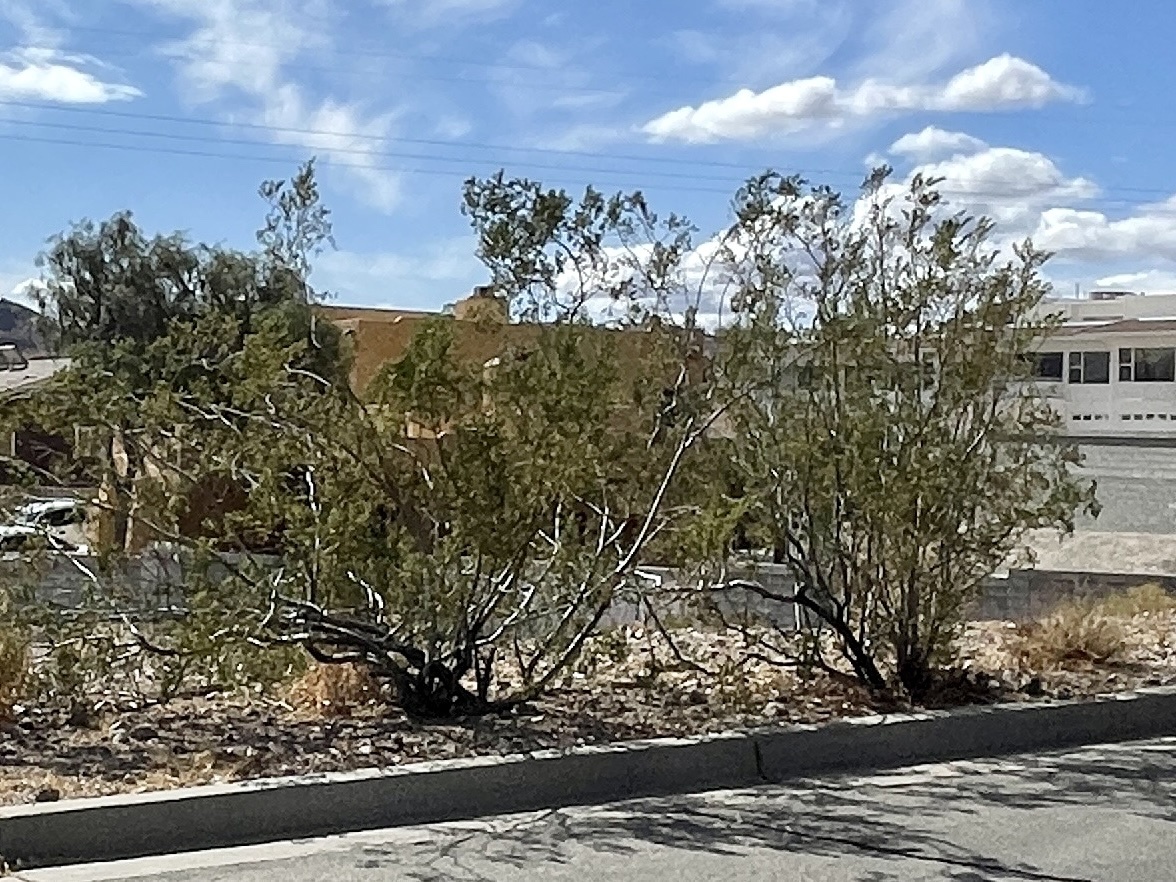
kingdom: Plantae
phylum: Tracheophyta
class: Magnoliopsida
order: Zygophyllales
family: Zygophyllaceae
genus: Larrea
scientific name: Larrea tridentata
